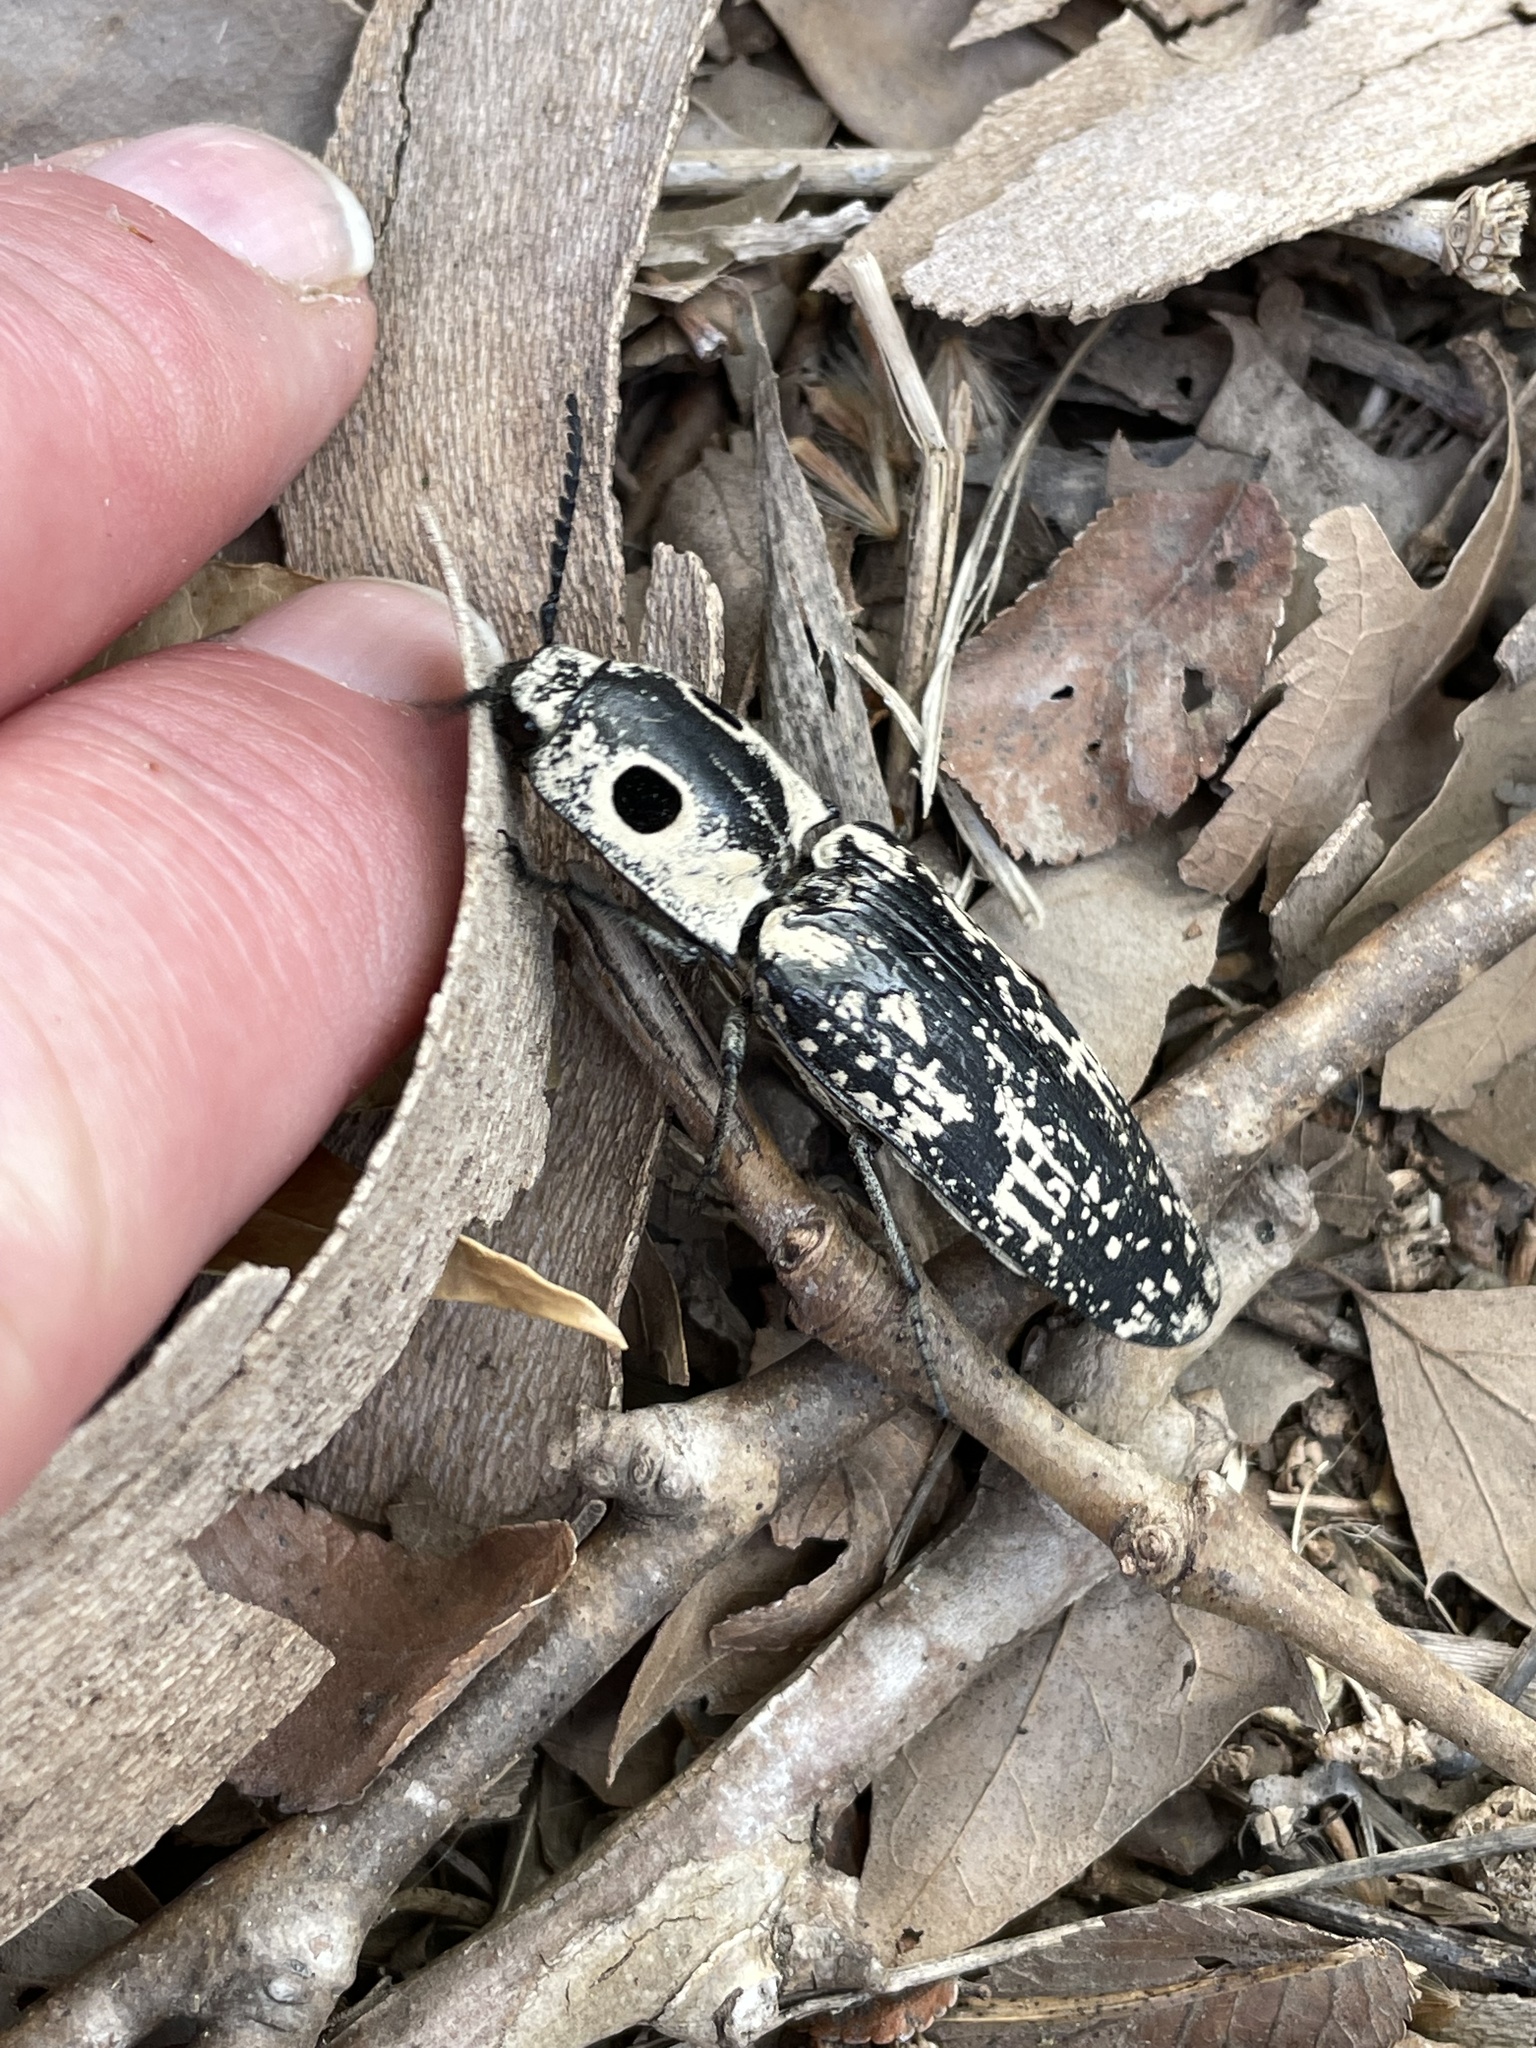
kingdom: Animalia
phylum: Arthropoda
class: Insecta
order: Coleoptera
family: Elateridae
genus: Alaus
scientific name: Alaus
